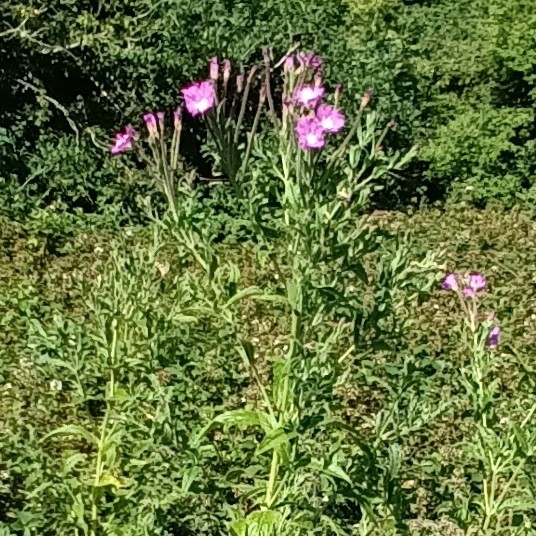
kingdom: Plantae
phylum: Tracheophyta
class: Magnoliopsida
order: Myrtales
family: Onagraceae
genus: Epilobium
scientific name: Epilobium hirsutum
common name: Great willowherb
